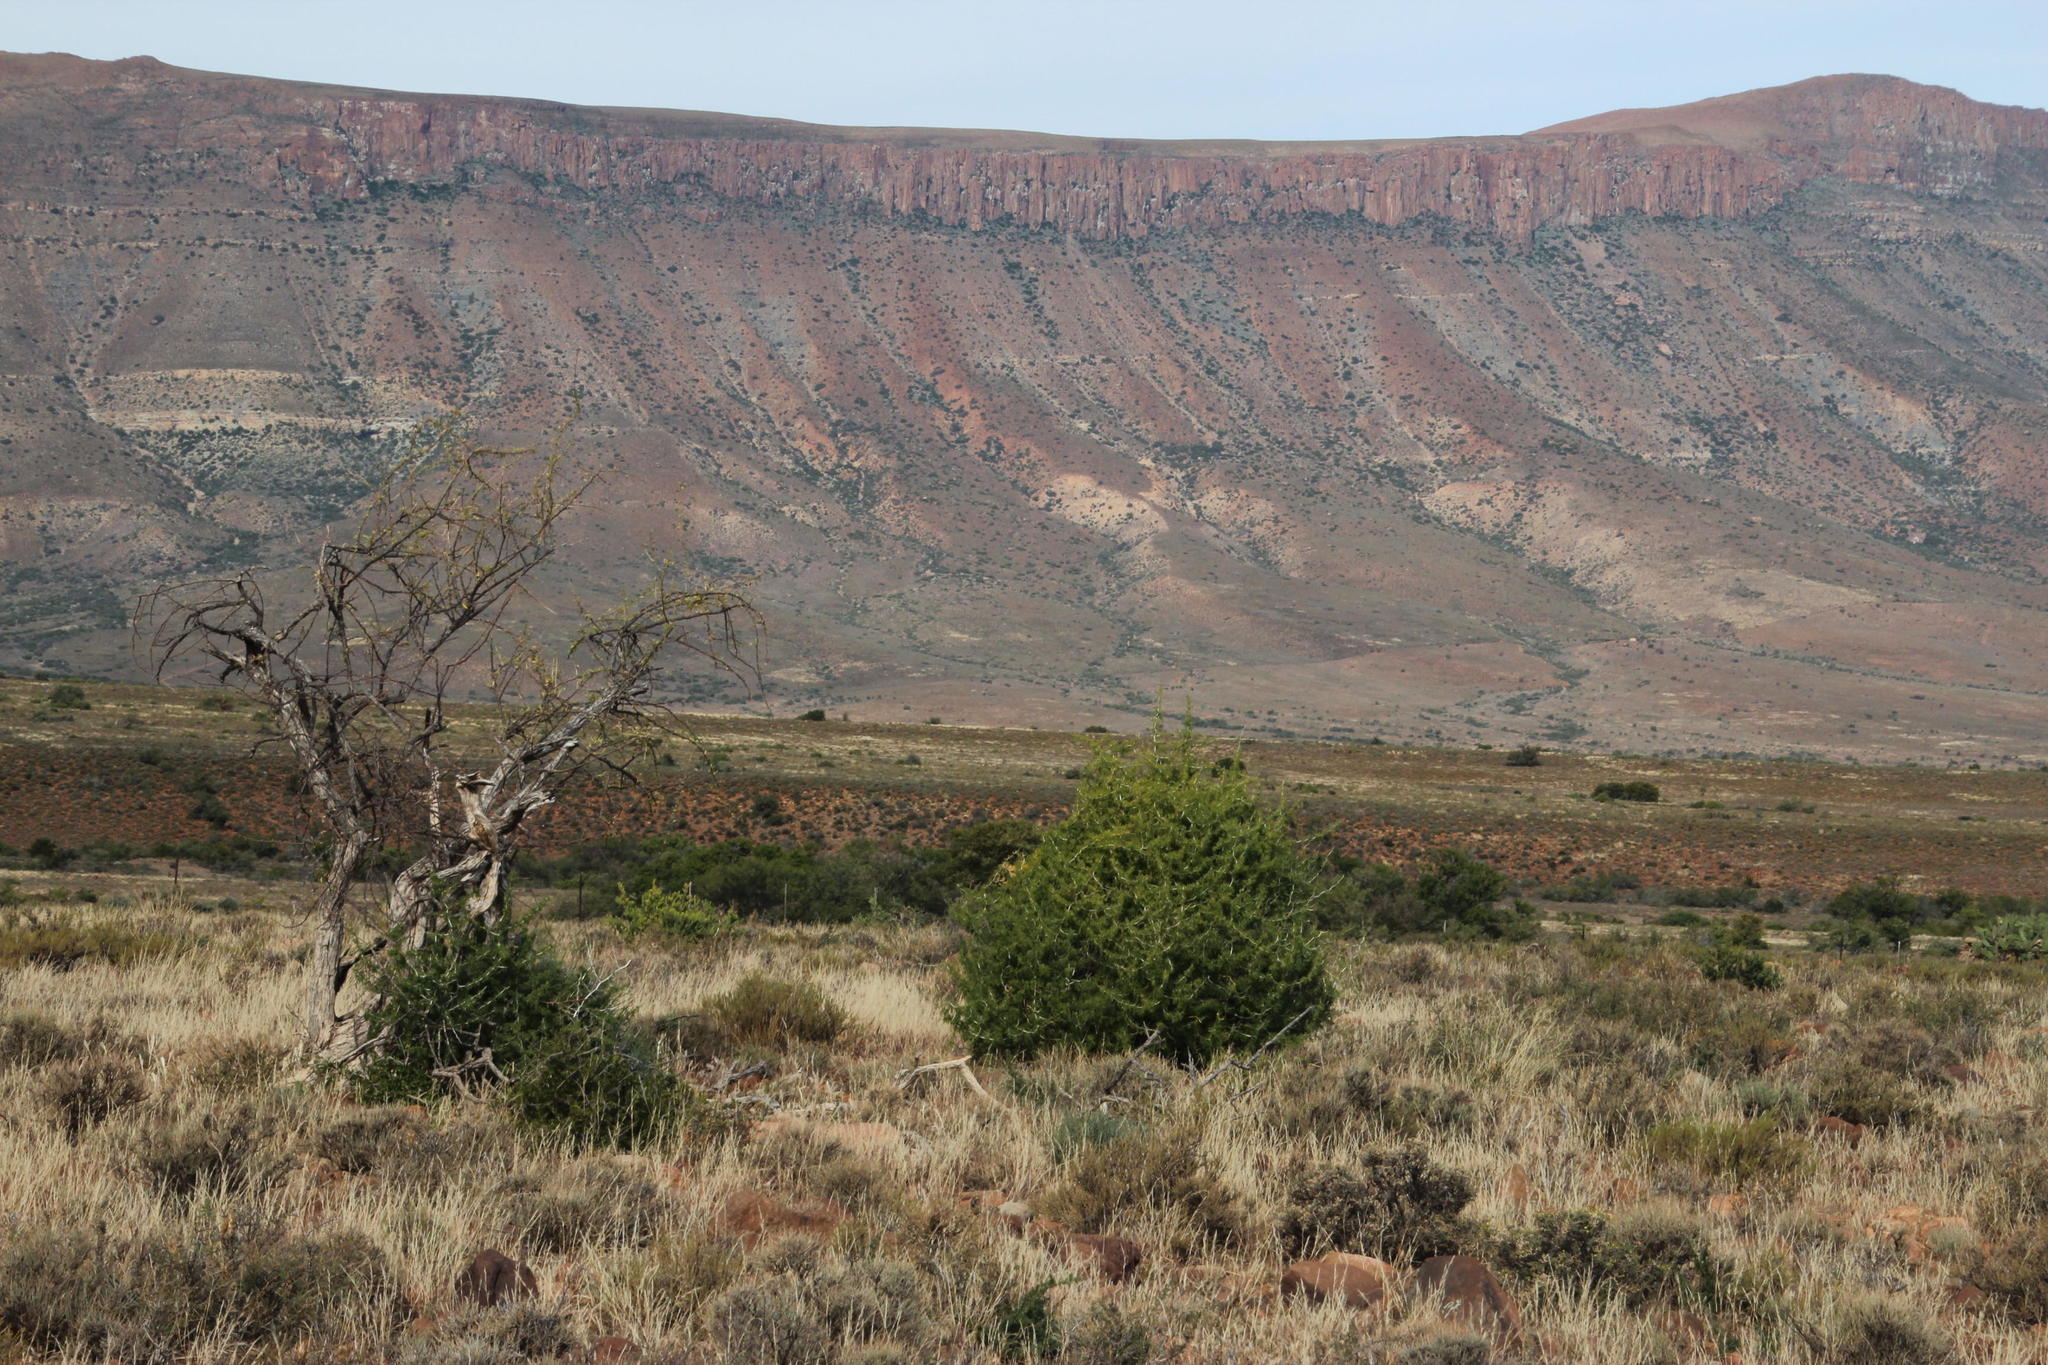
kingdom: Plantae
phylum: Tracheophyta
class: Magnoliopsida
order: Fabales
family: Fabaceae
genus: Vachellia
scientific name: Vachellia karroo
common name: Sweet thorn
